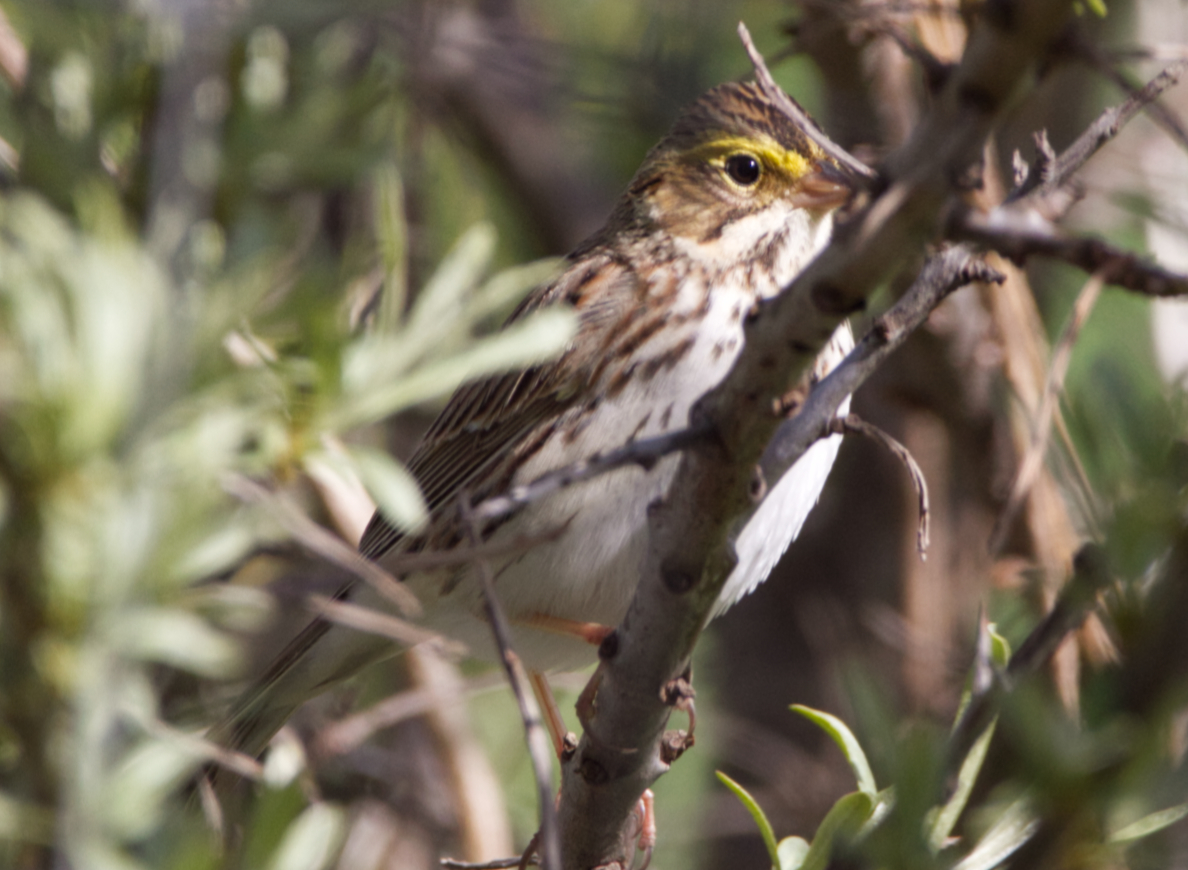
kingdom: Animalia
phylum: Chordata
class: Aves
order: Passeriformes
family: Passerellidae
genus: Passerculus
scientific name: Passerculus sandwichensis
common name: Savannah sparrow
